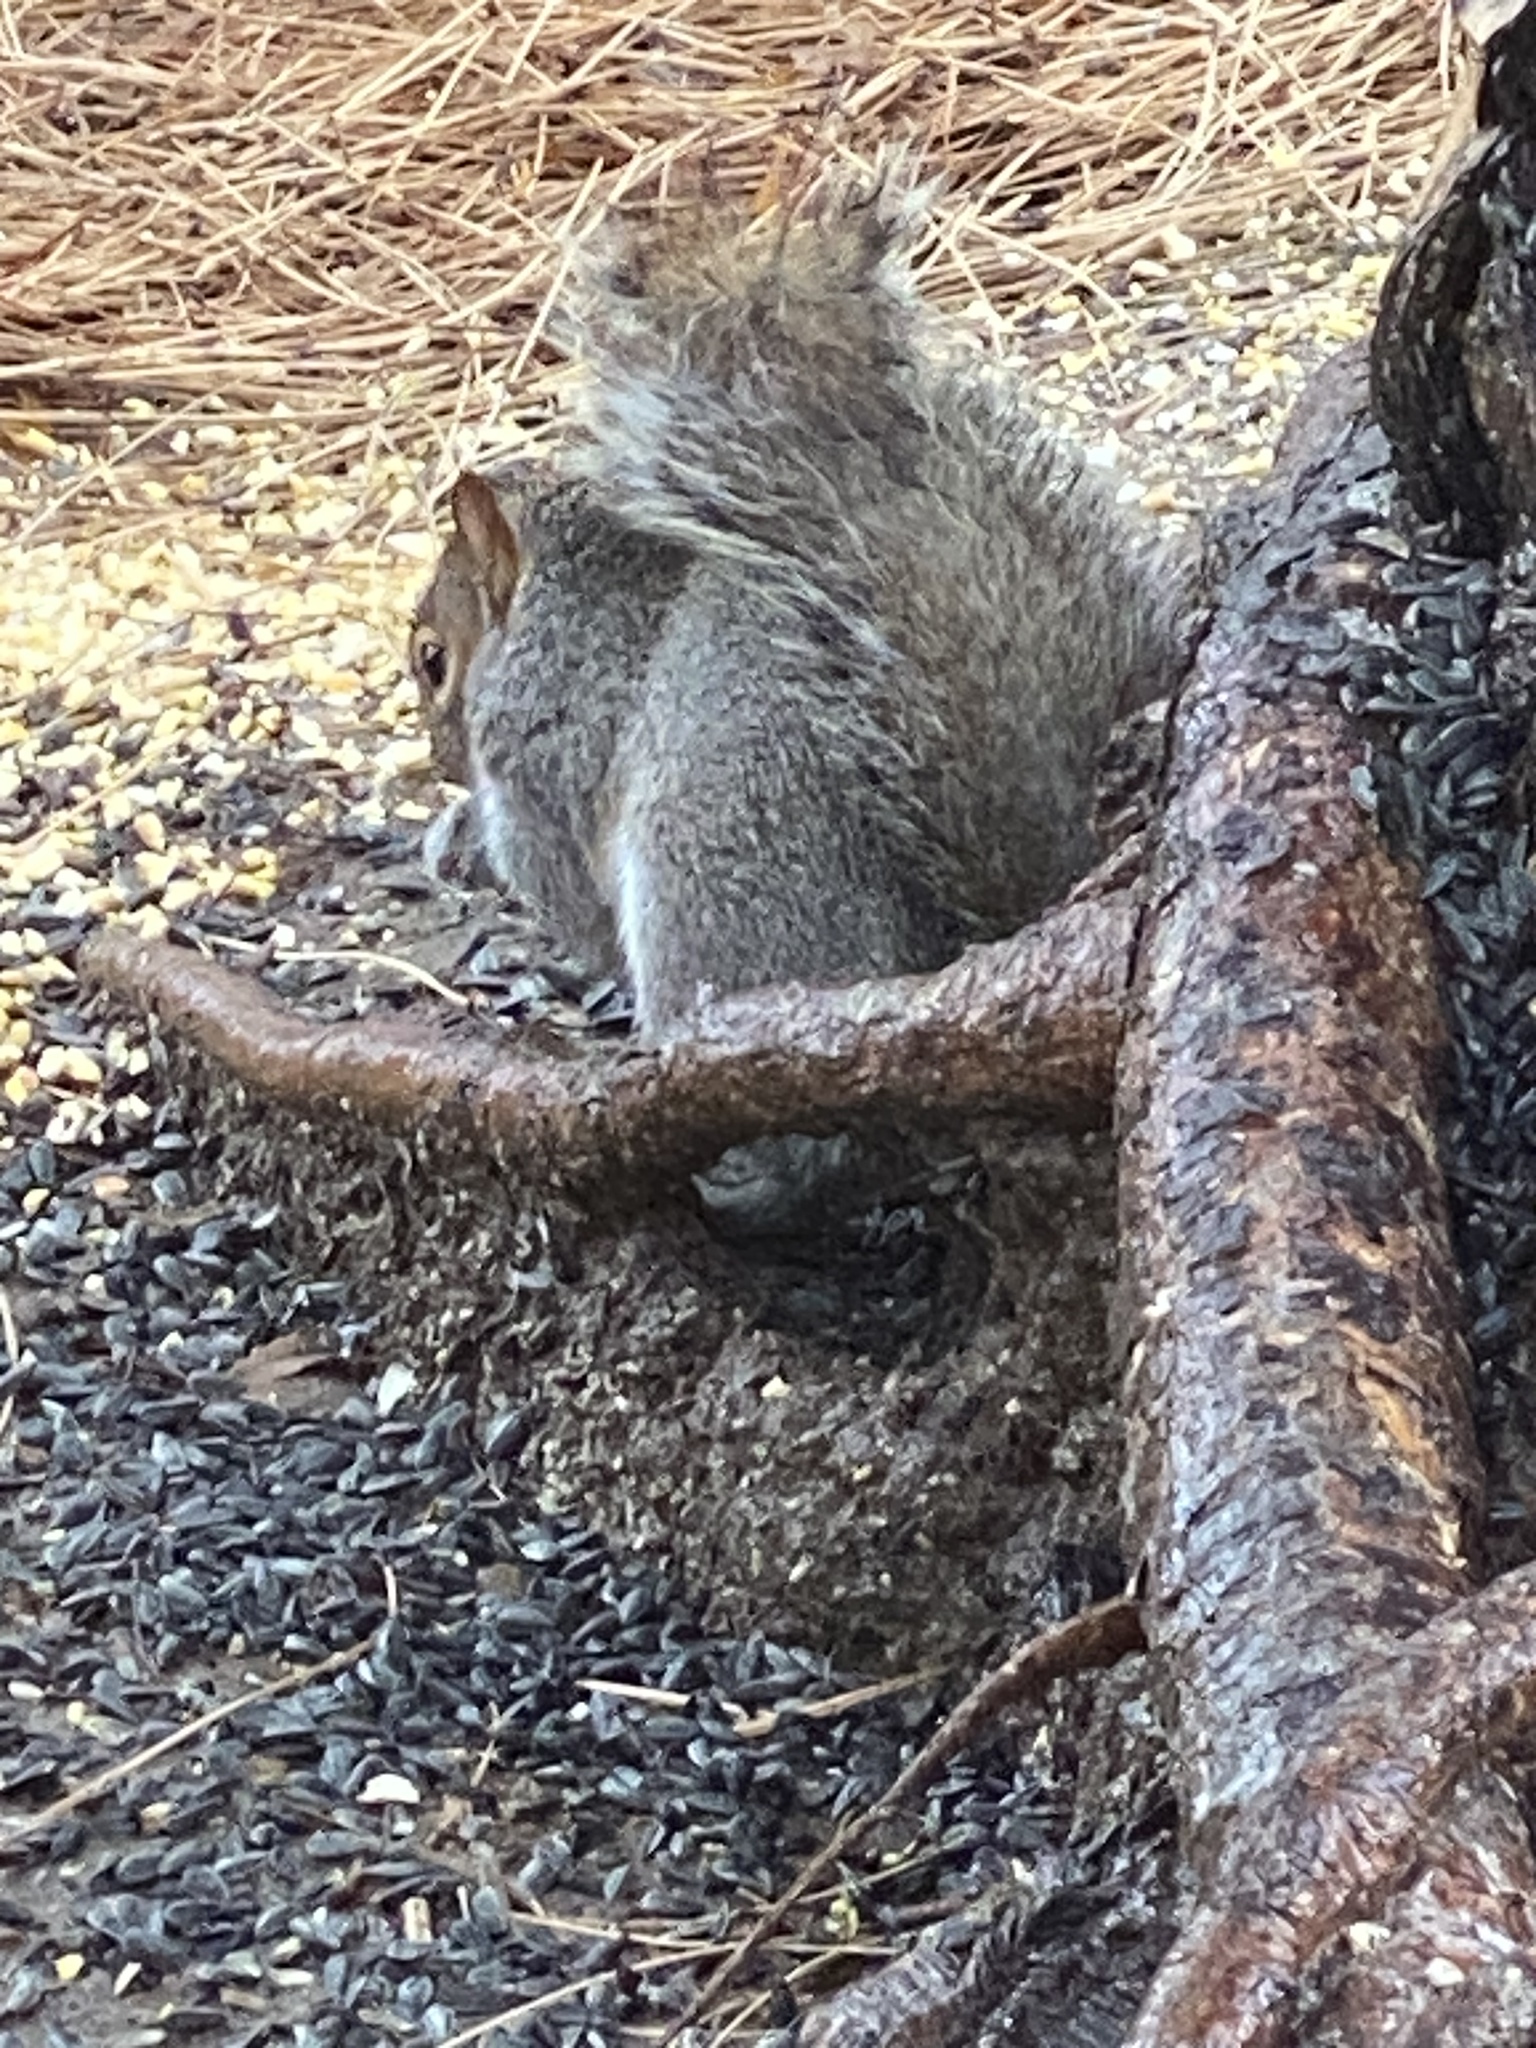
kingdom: Animalia
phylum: Chordata
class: Mammalia
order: Rodentia
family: Sciuridae
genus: Sciurus
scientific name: Sciurus carolinensis
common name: Eastern gray squirrel
